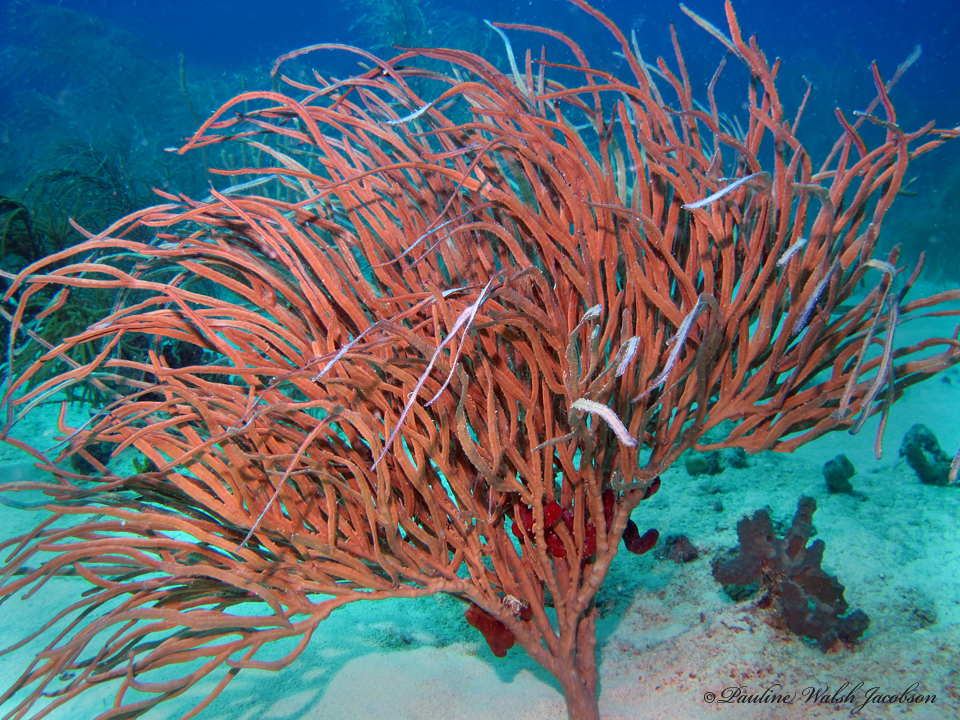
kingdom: Animalia
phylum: Cnidaria
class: Anthozoa
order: Malacalcyonacea
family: Pterogorgiidae
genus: Pterogorgia
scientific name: Pterogorgia anceps
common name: Angular sea whip
